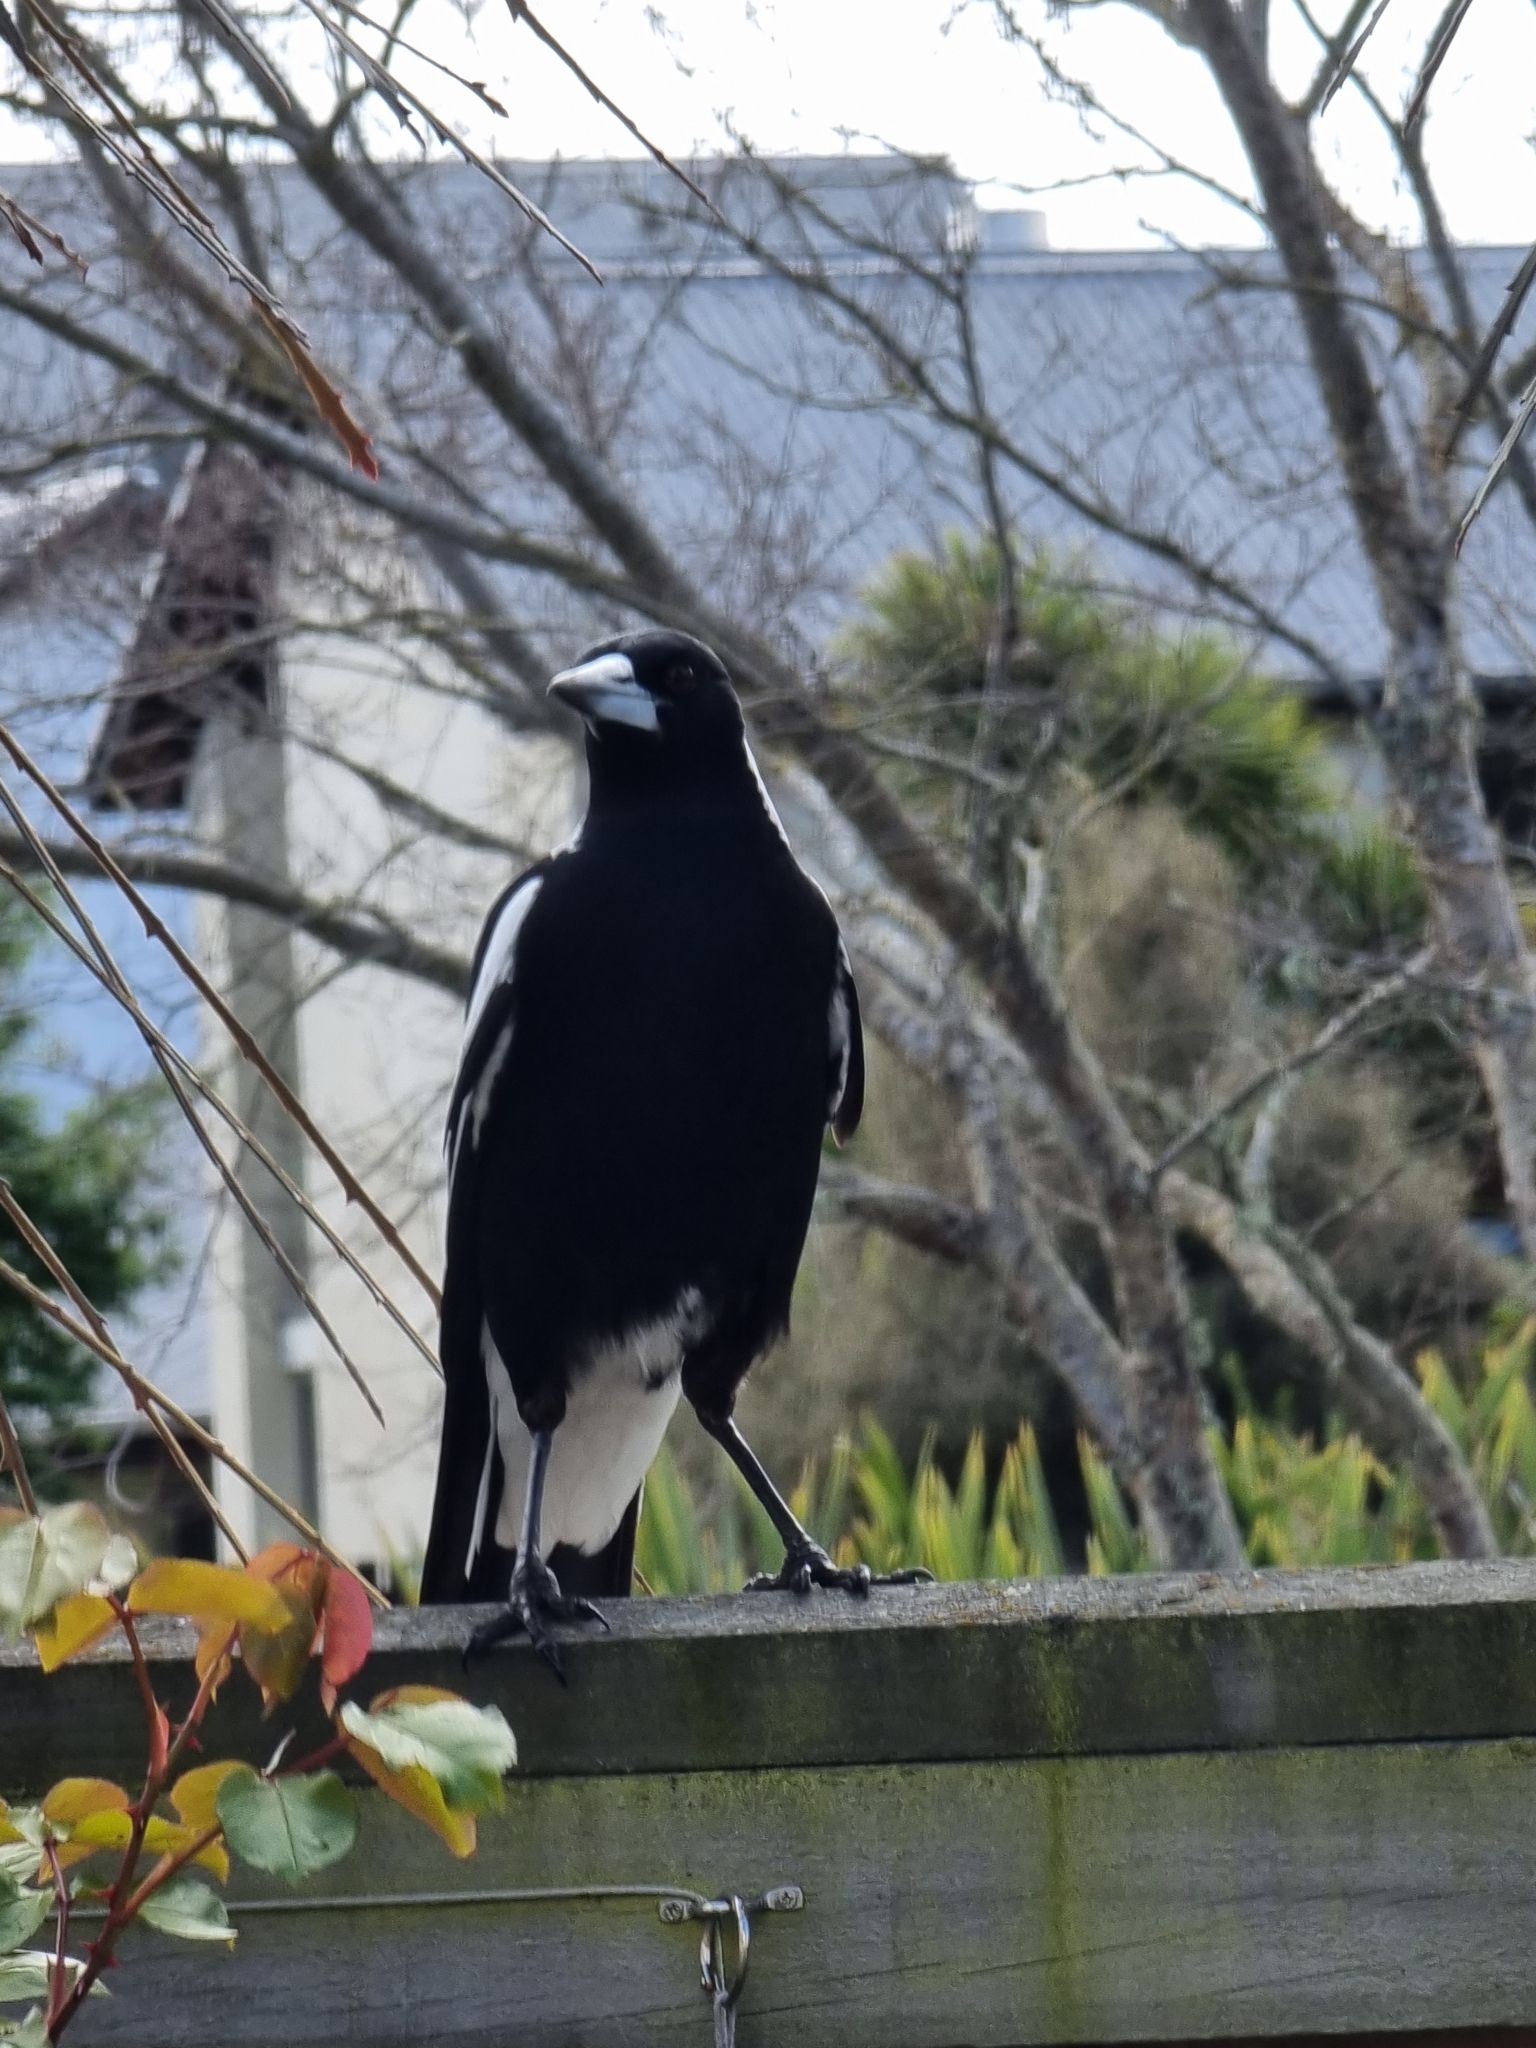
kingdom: Animalia
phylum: Chordata
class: Aves
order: Passeriformes
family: Cracticidae
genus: Gymnorhina
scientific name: Gymnorhina tibicen
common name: Australian magpie
